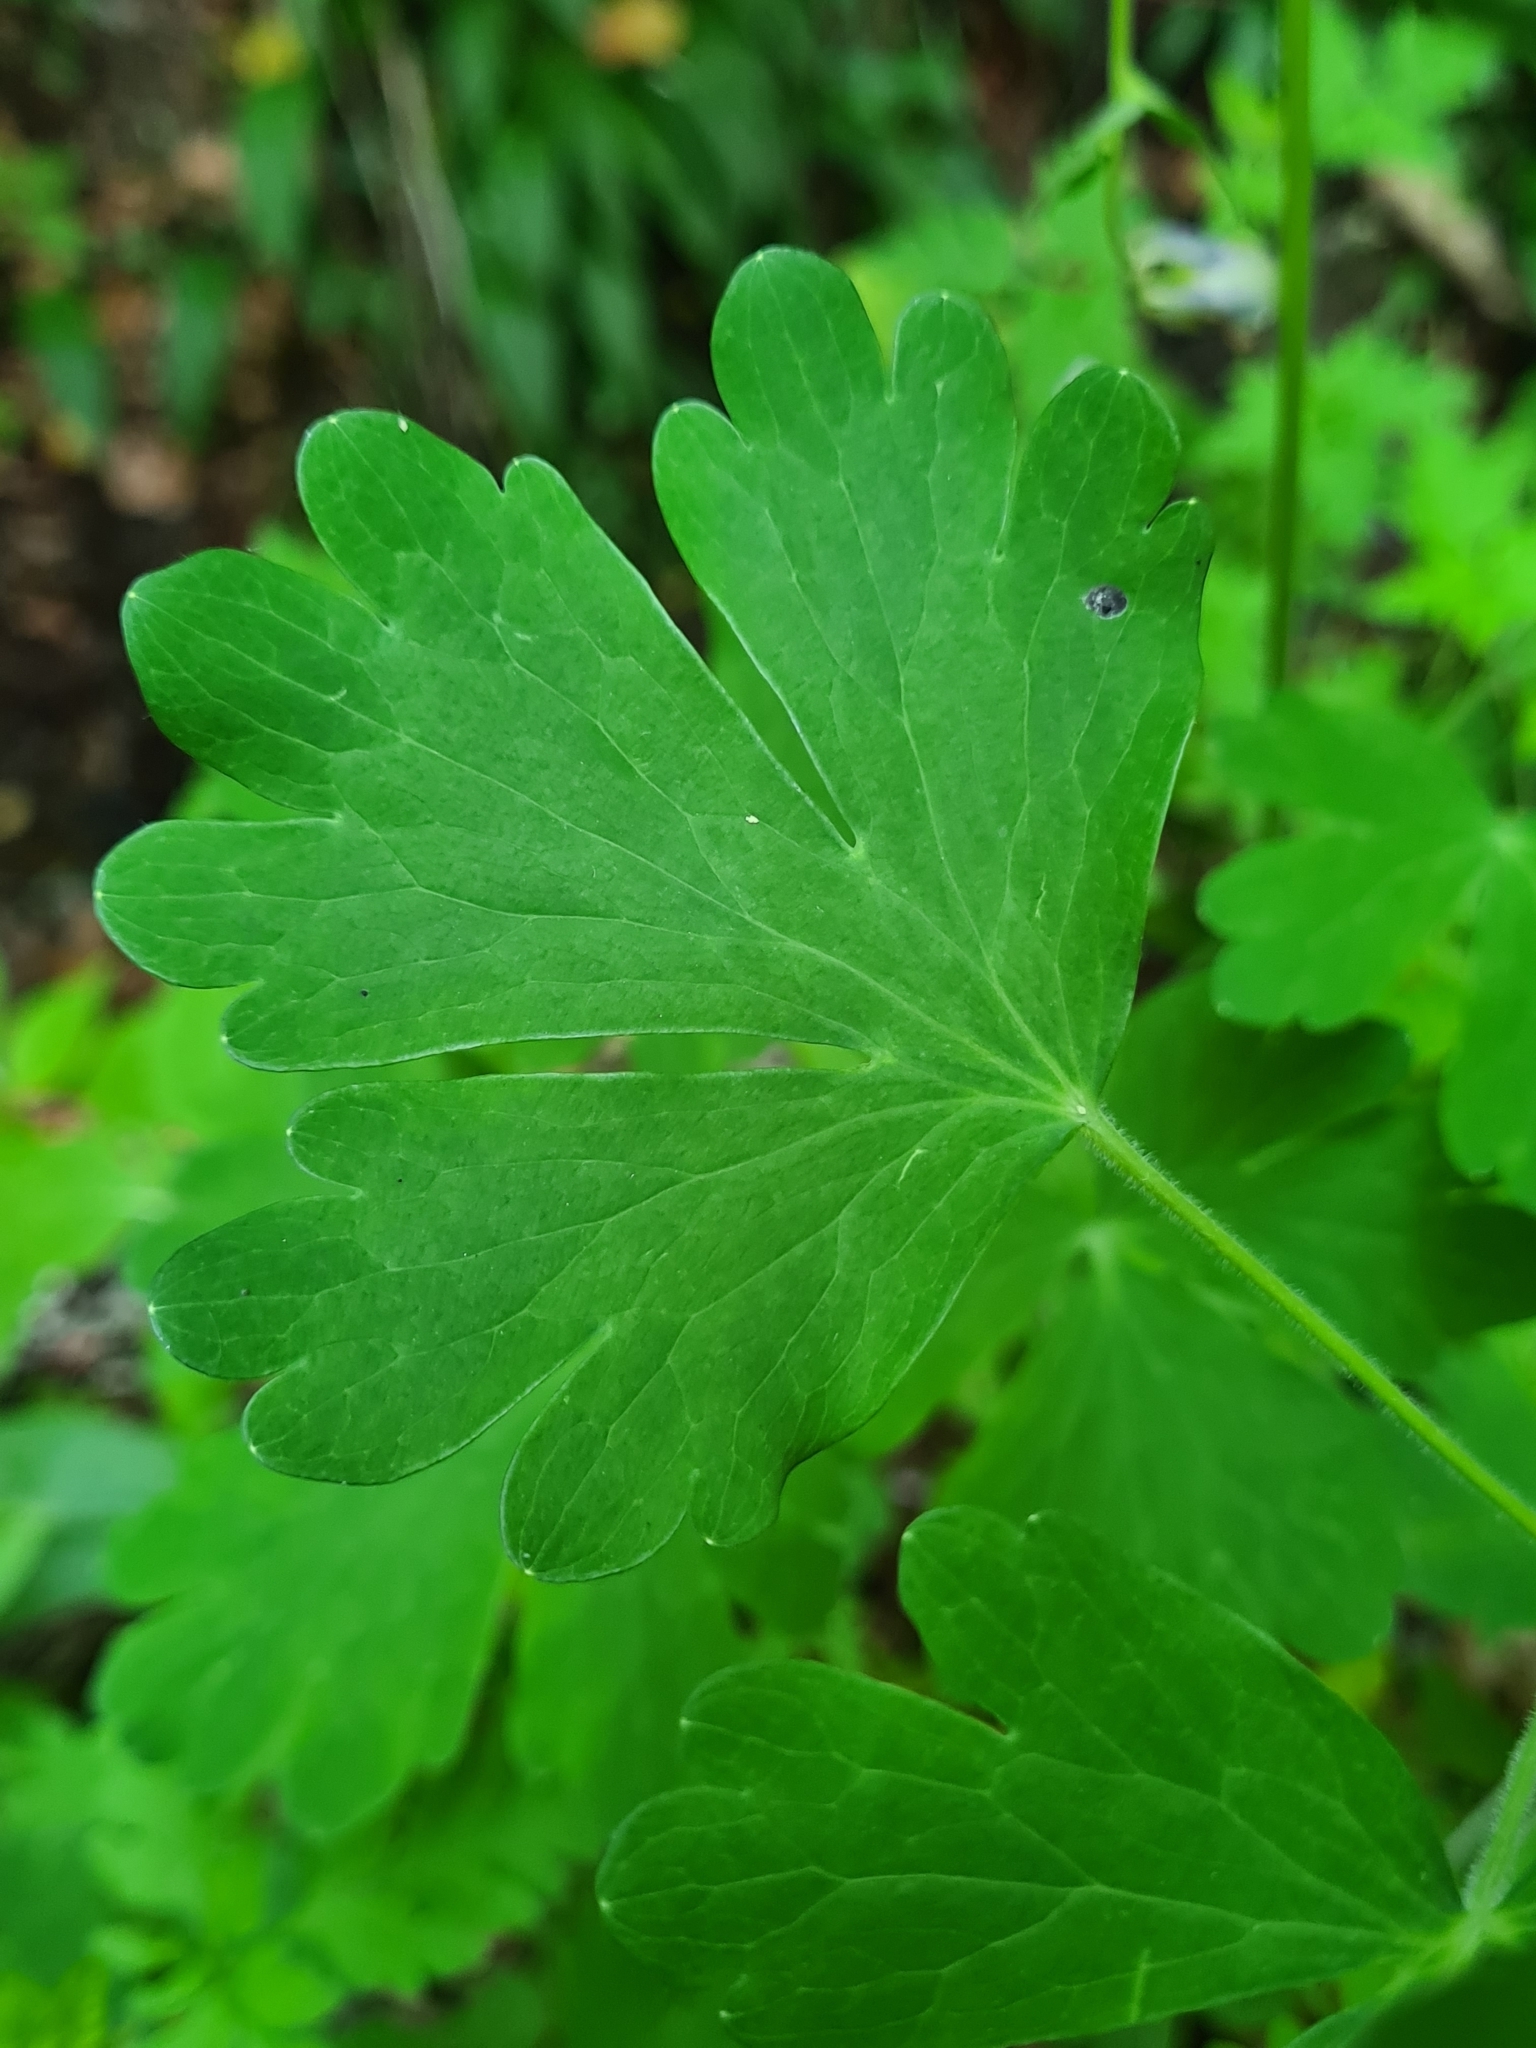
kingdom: Plantae
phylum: Tracheophyta
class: Magnoliopsida
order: Ranunculales
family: Ranunculaceae
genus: Aquilegia
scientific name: Aquilegia vulgaris
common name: Columbine
